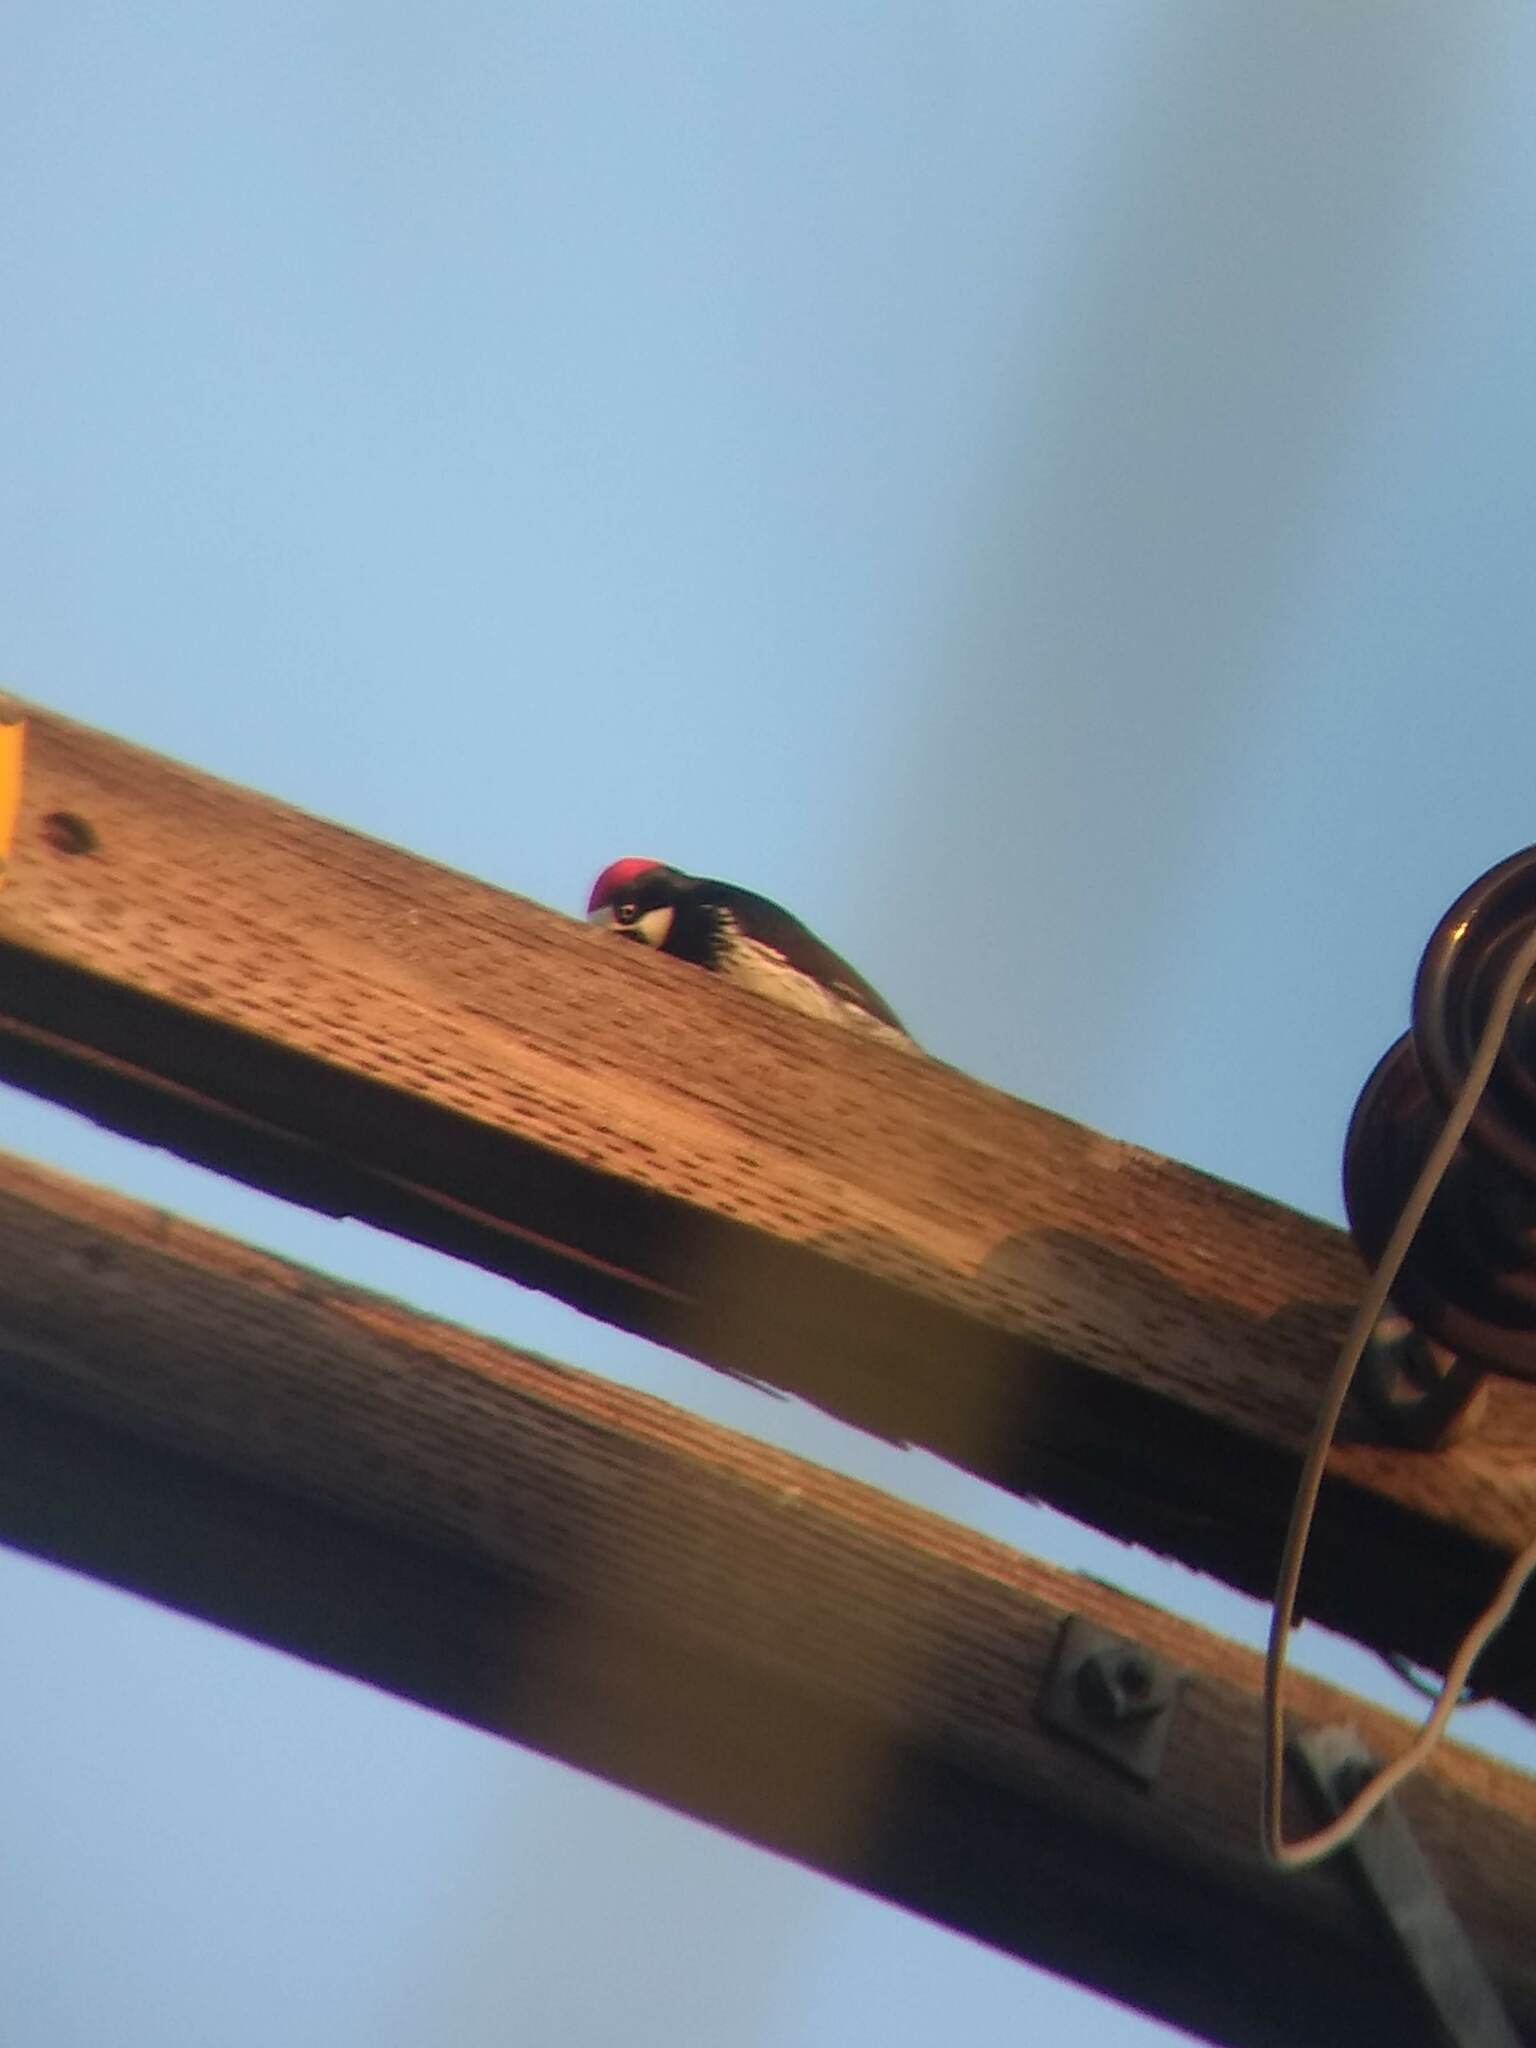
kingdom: Animalia
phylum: Chordata
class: Aves
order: Piciformes
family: Picidae
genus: Melanerpes
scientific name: Melanerpes formicivorus
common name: Acorn woodpecker
